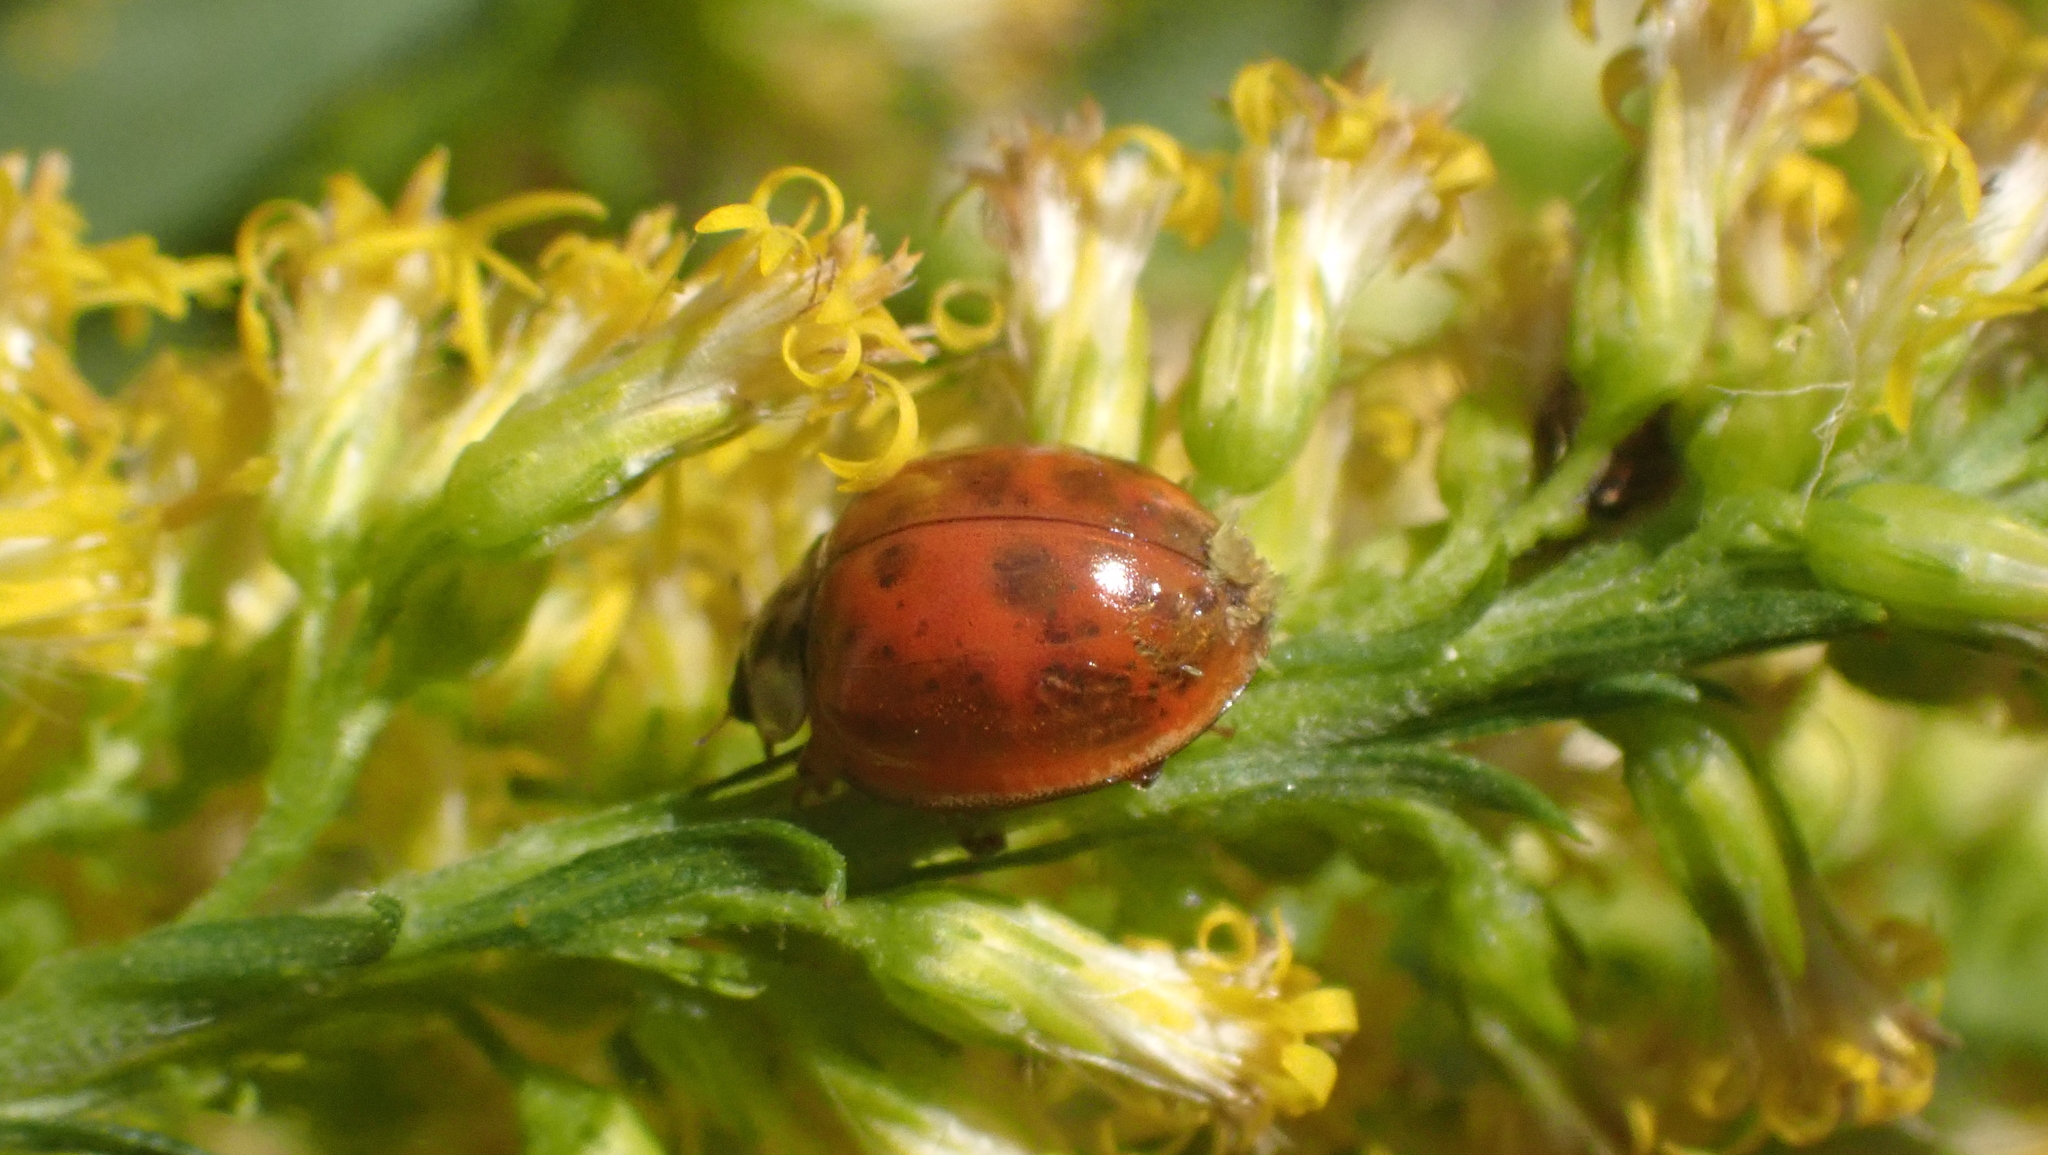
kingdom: Animalia
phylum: Arthropoda
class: Insecta
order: Coleoptera
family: Coccinellidae
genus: Harmonia
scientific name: Harmonia axyridis
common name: Harlequin ladybird
